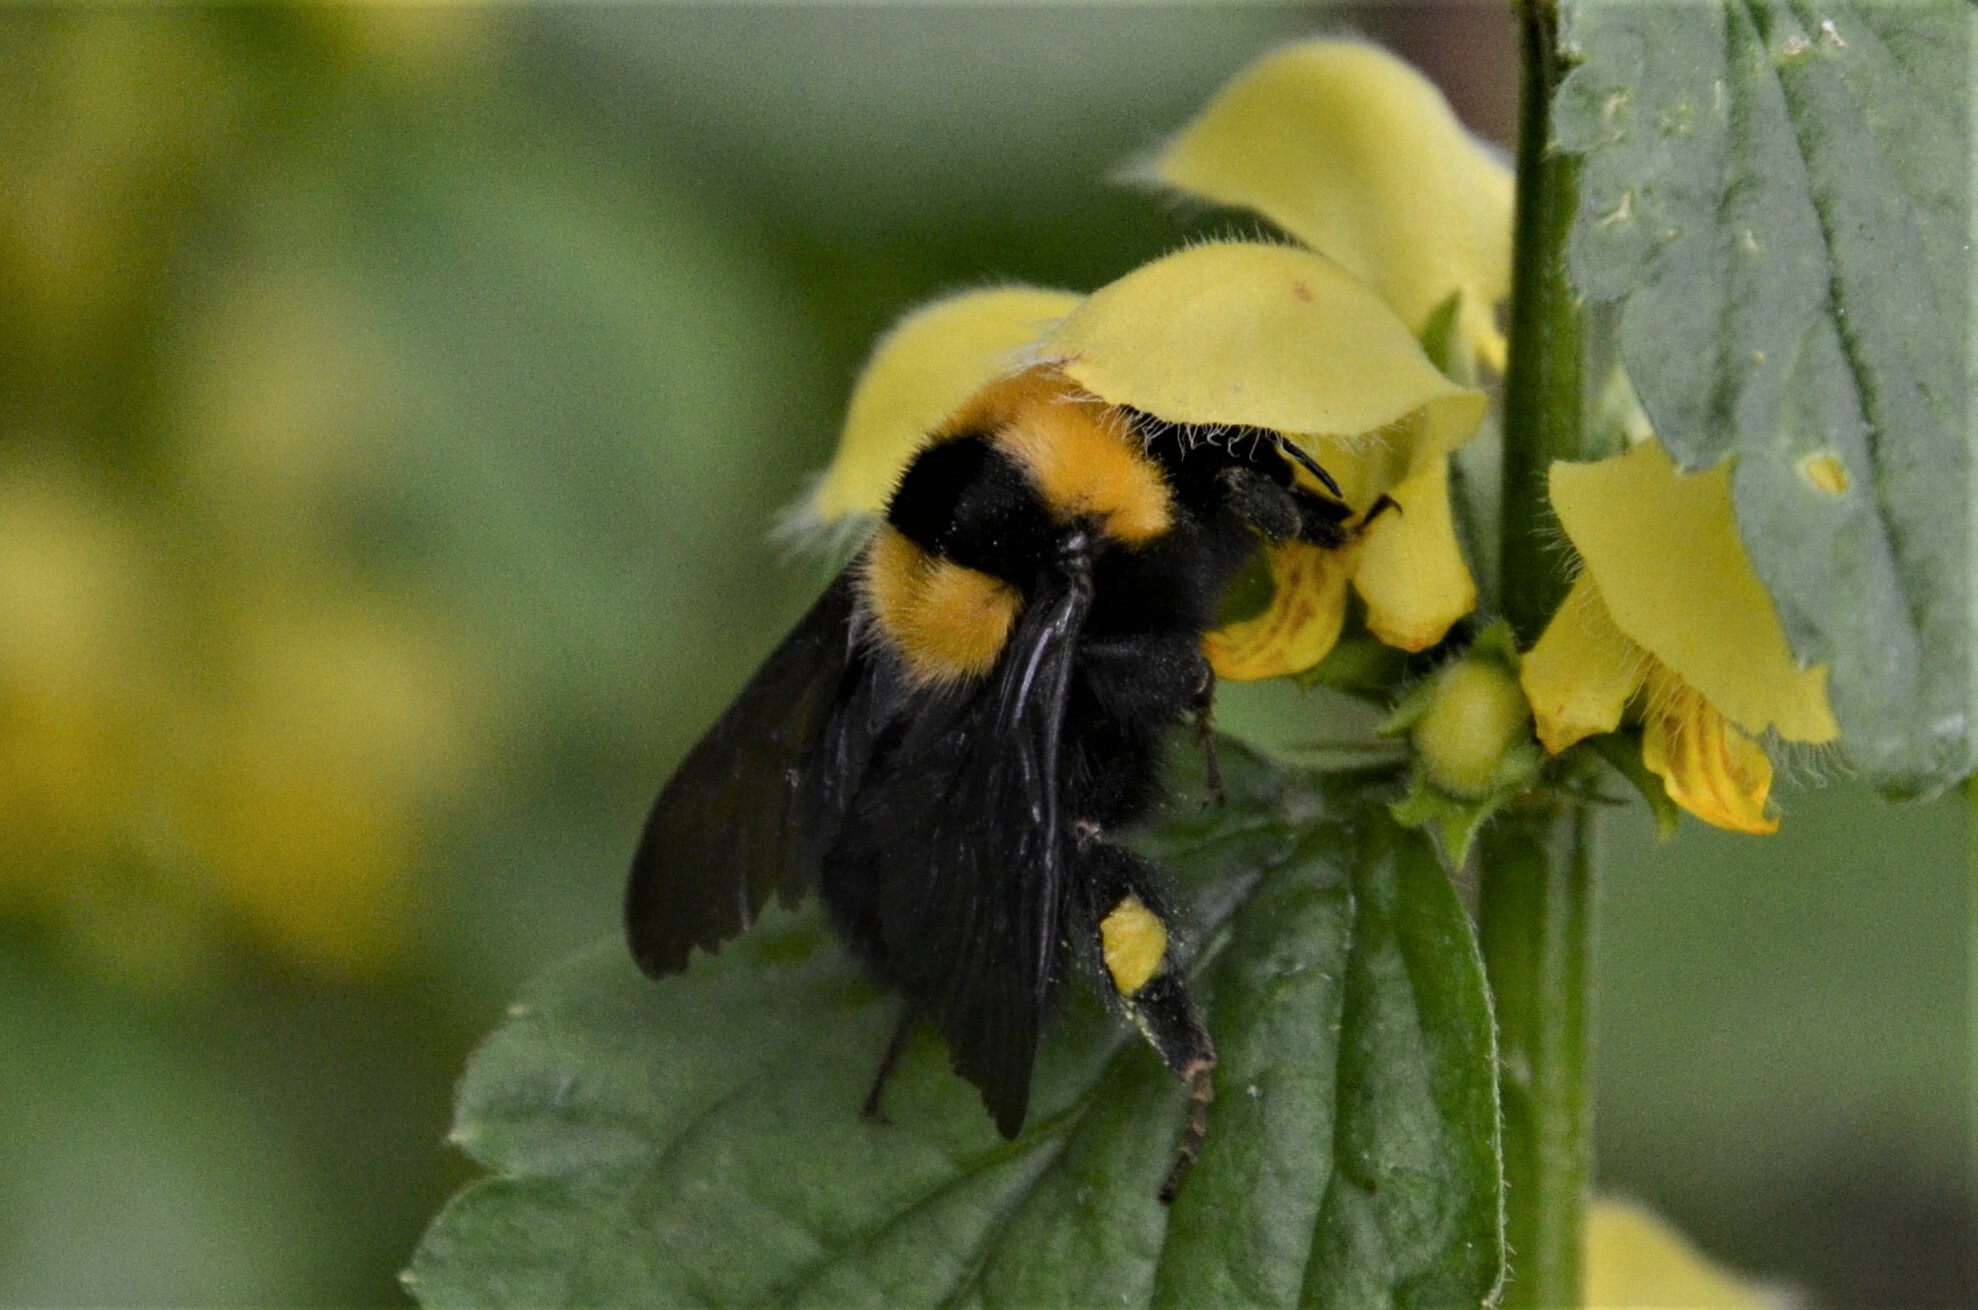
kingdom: Animalia
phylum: Arthropoda
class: Insecta
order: Hymenoptera
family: Apidae
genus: Bombus
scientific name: Bombus argillaceus
